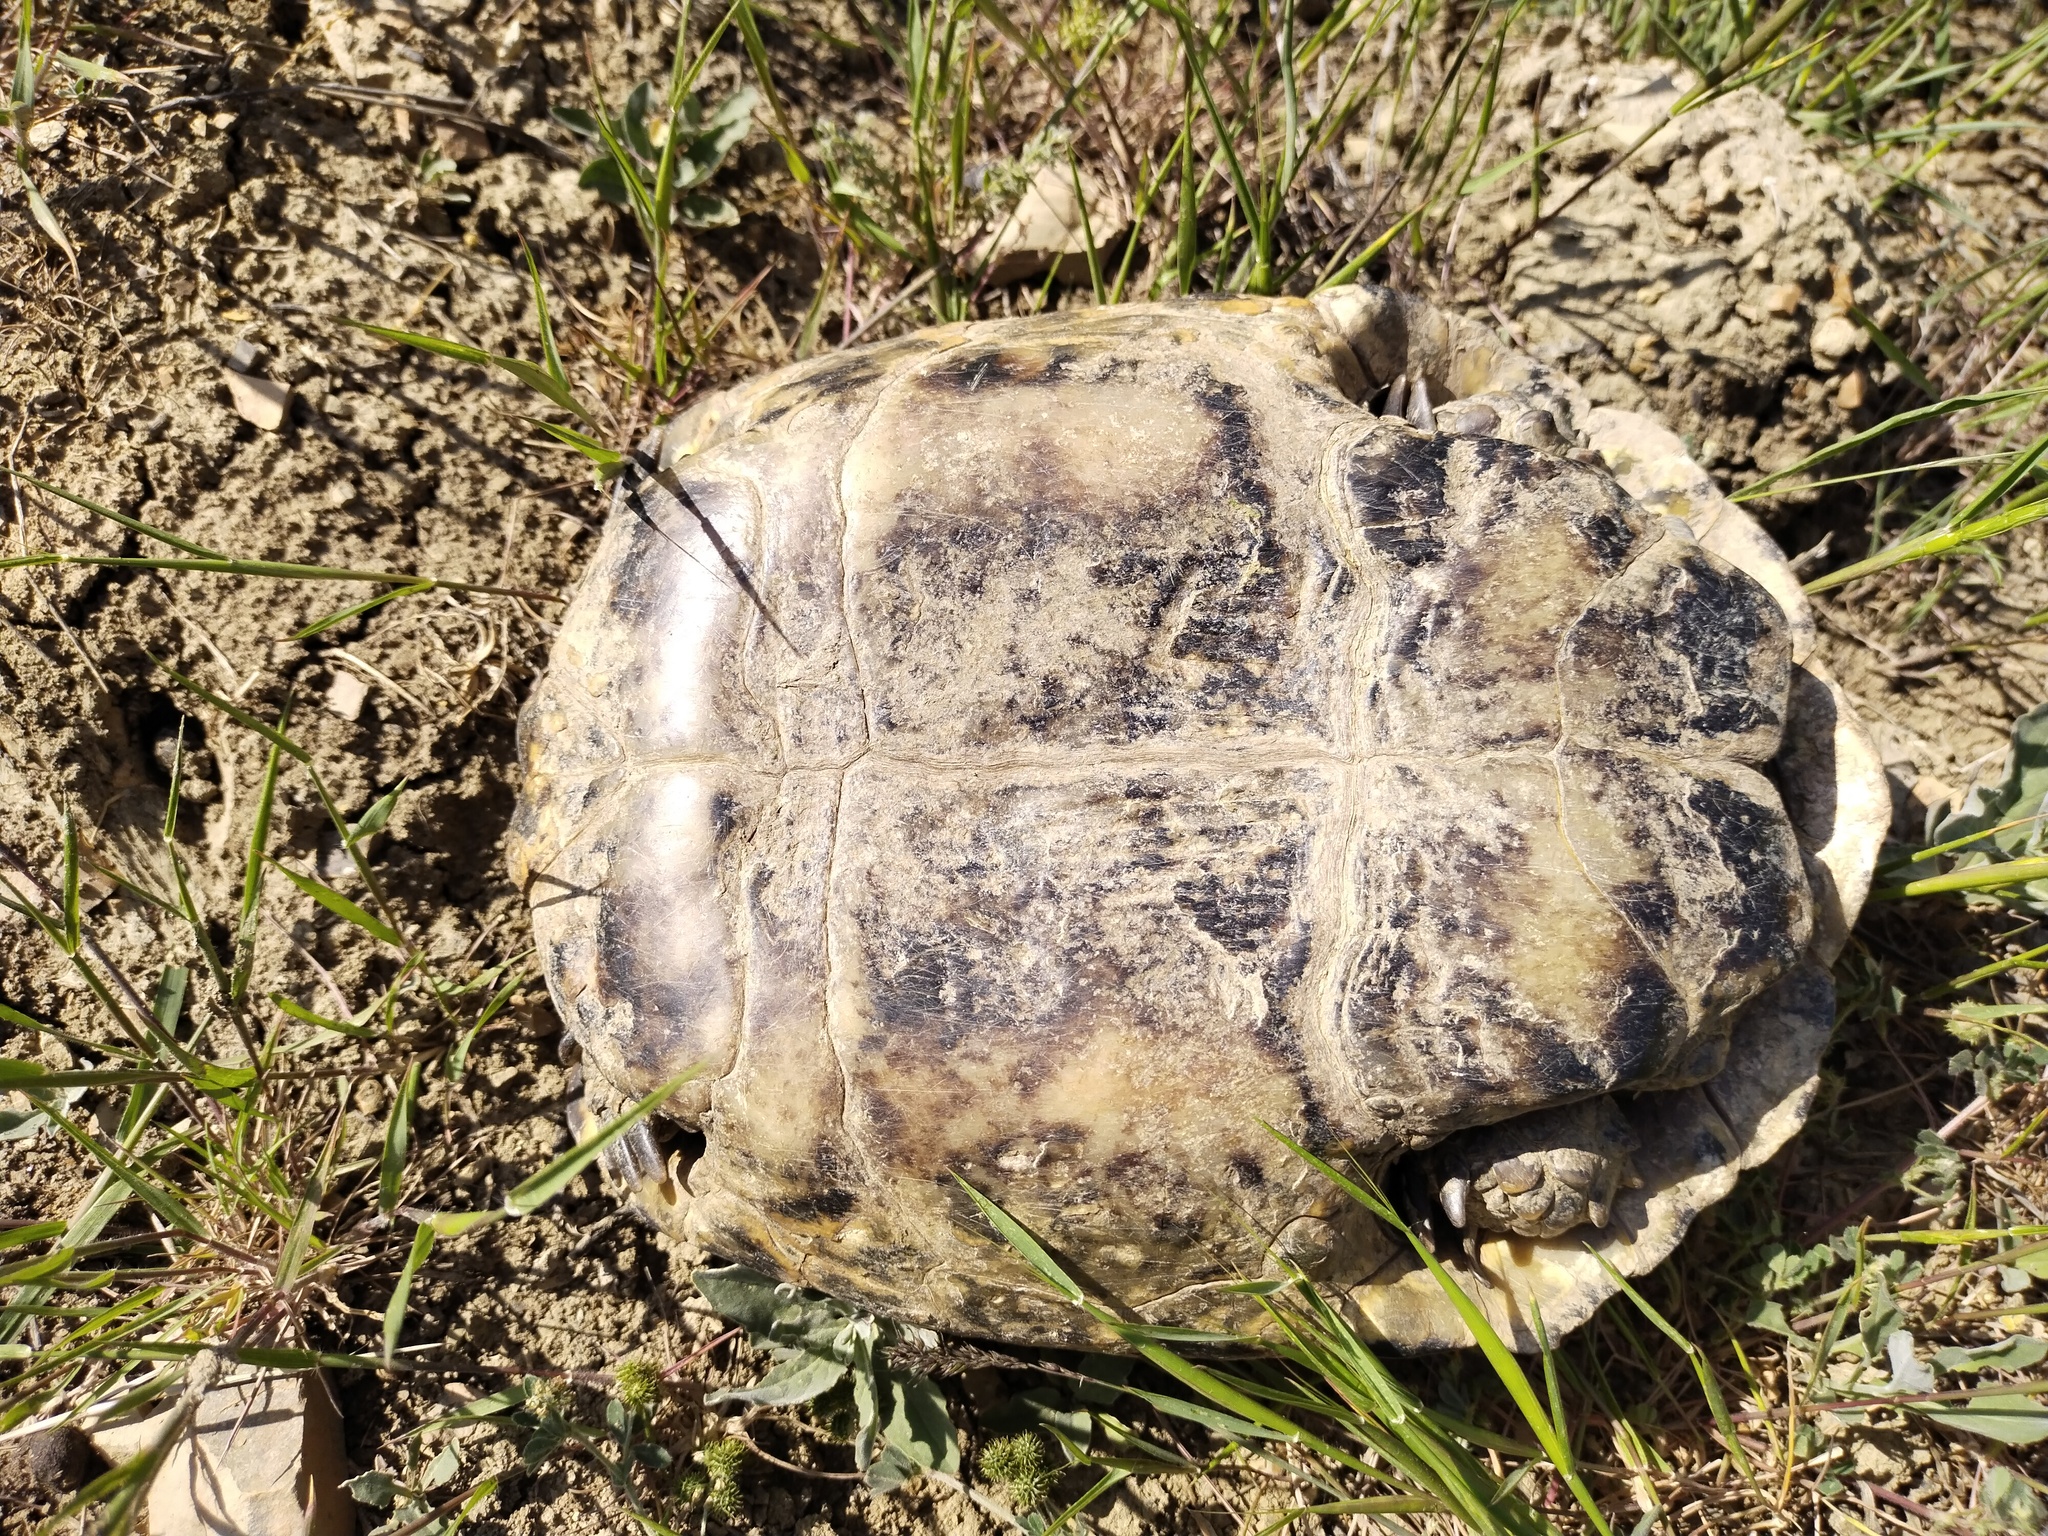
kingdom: Animalia
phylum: Chordata
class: Testudines
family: Testudinidae
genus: Testudo
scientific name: Testudo graeca
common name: Common tortoise
